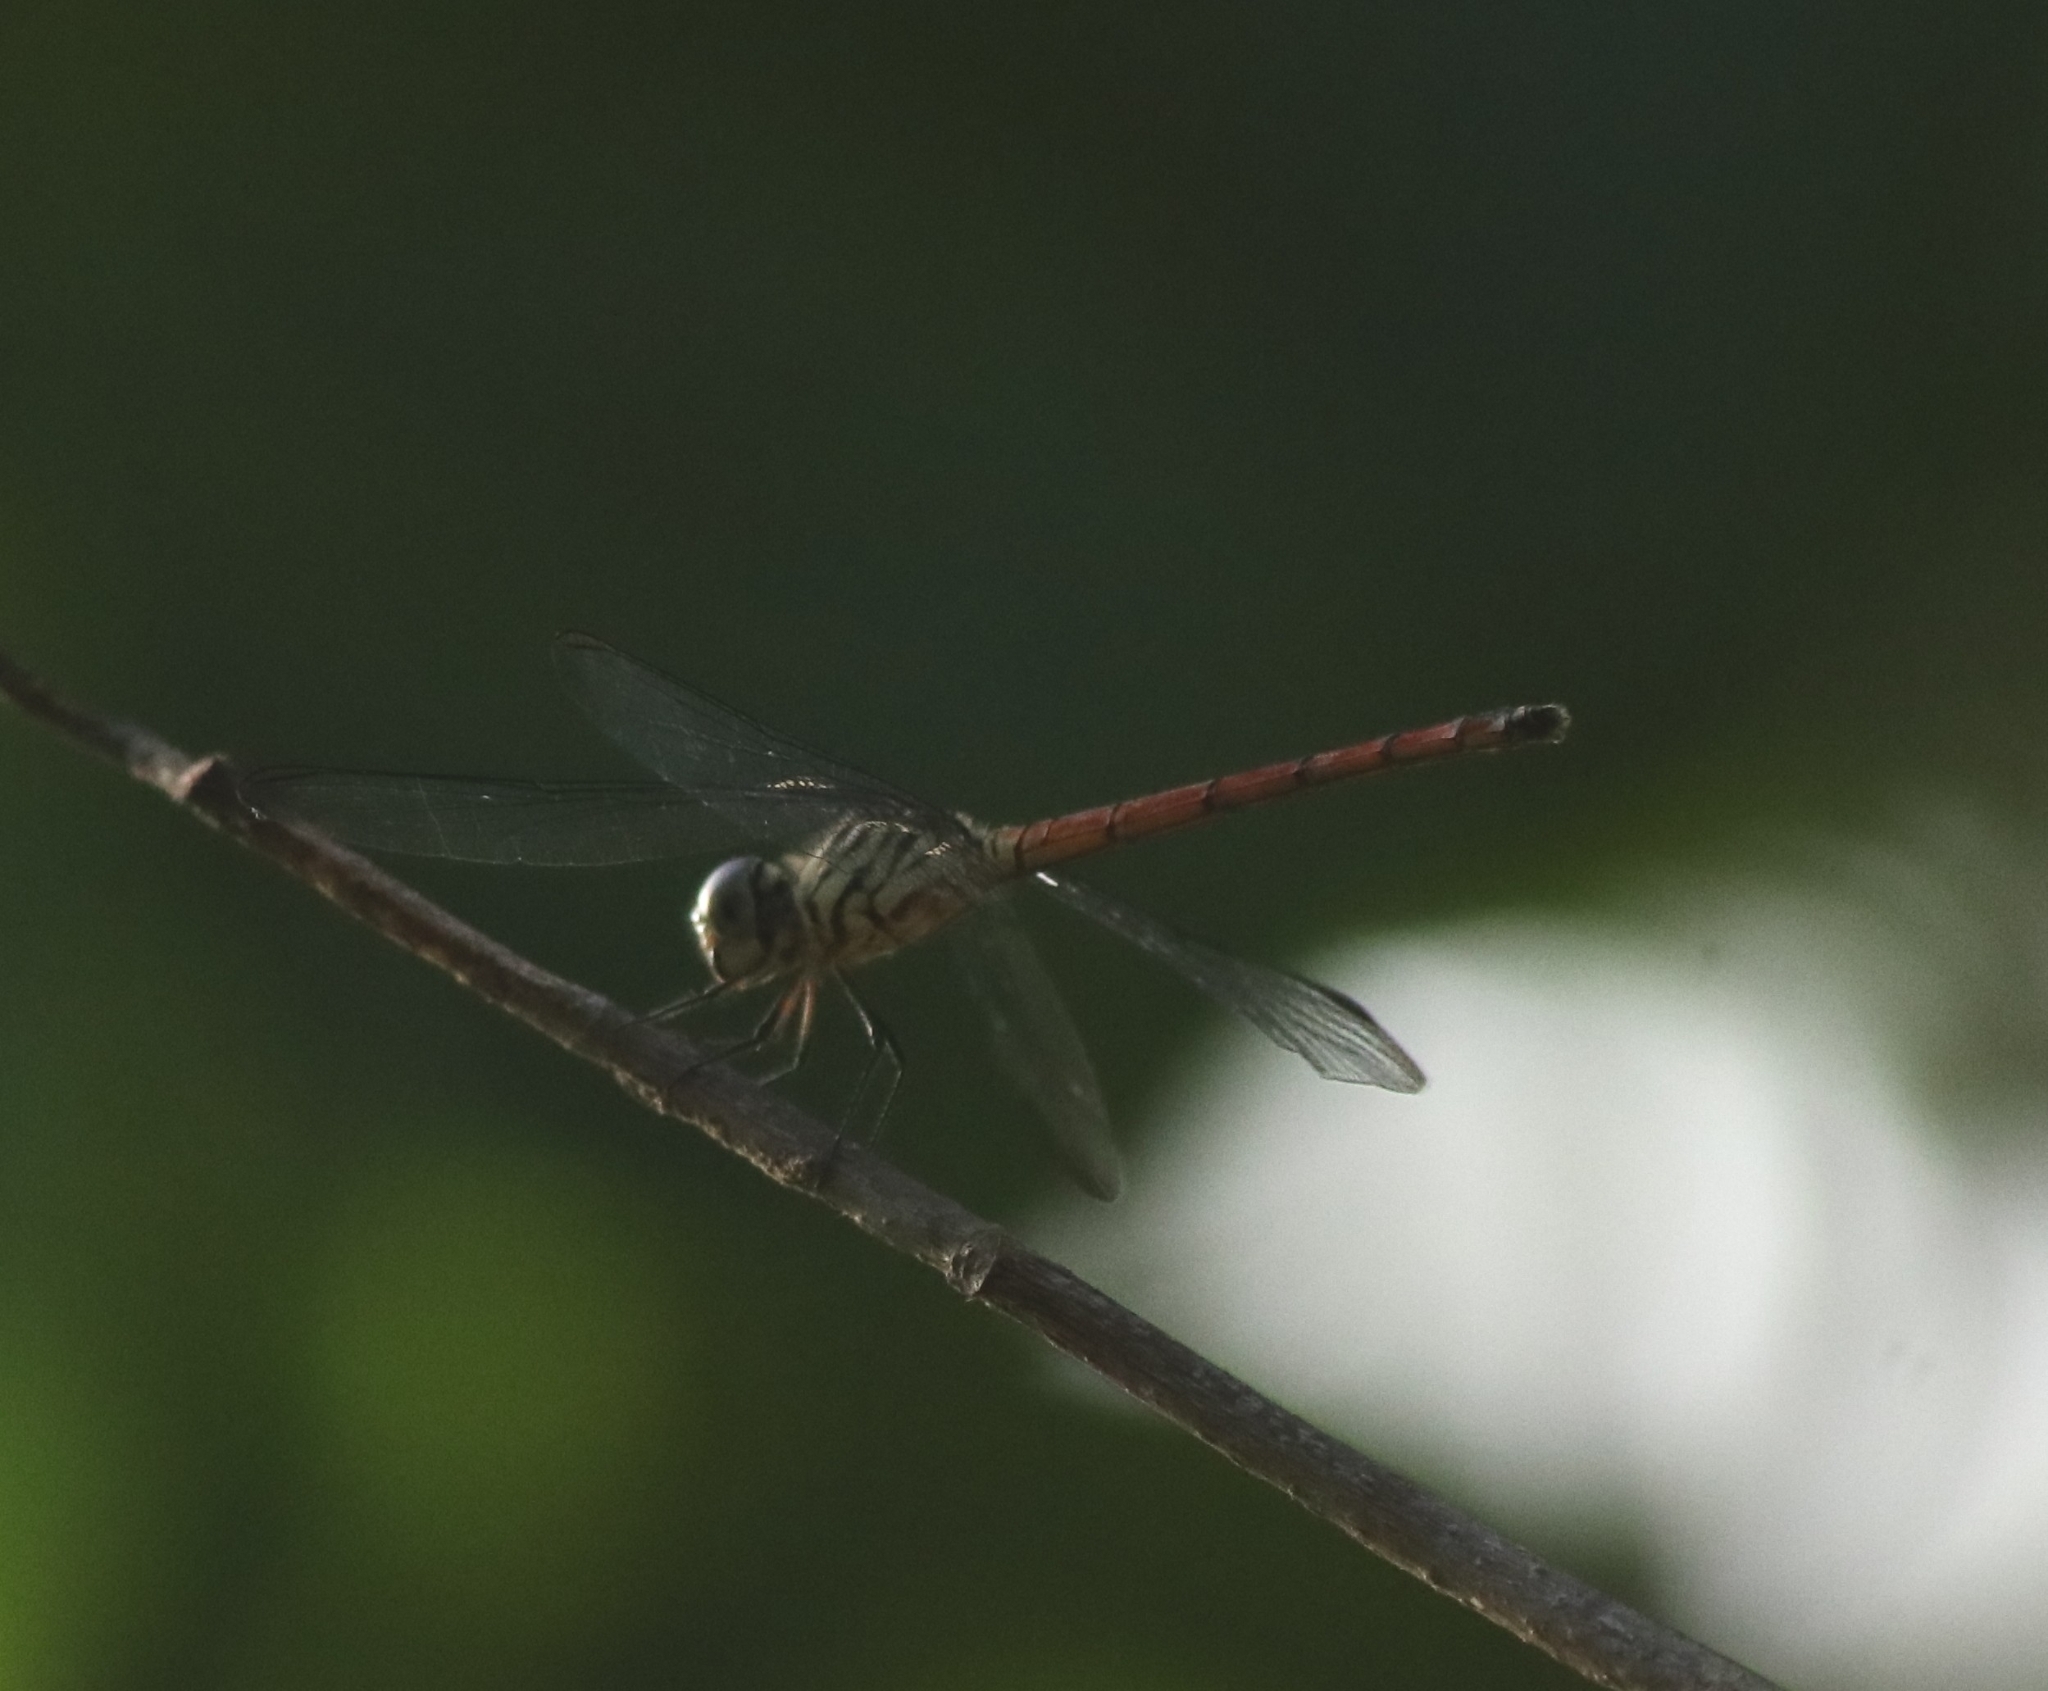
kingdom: Animalia
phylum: Arthropoda
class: Insecta
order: Odonata
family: Libellulidae
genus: Lathrecista
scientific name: Lathrecista asiatica
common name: Scarlet grenadier
